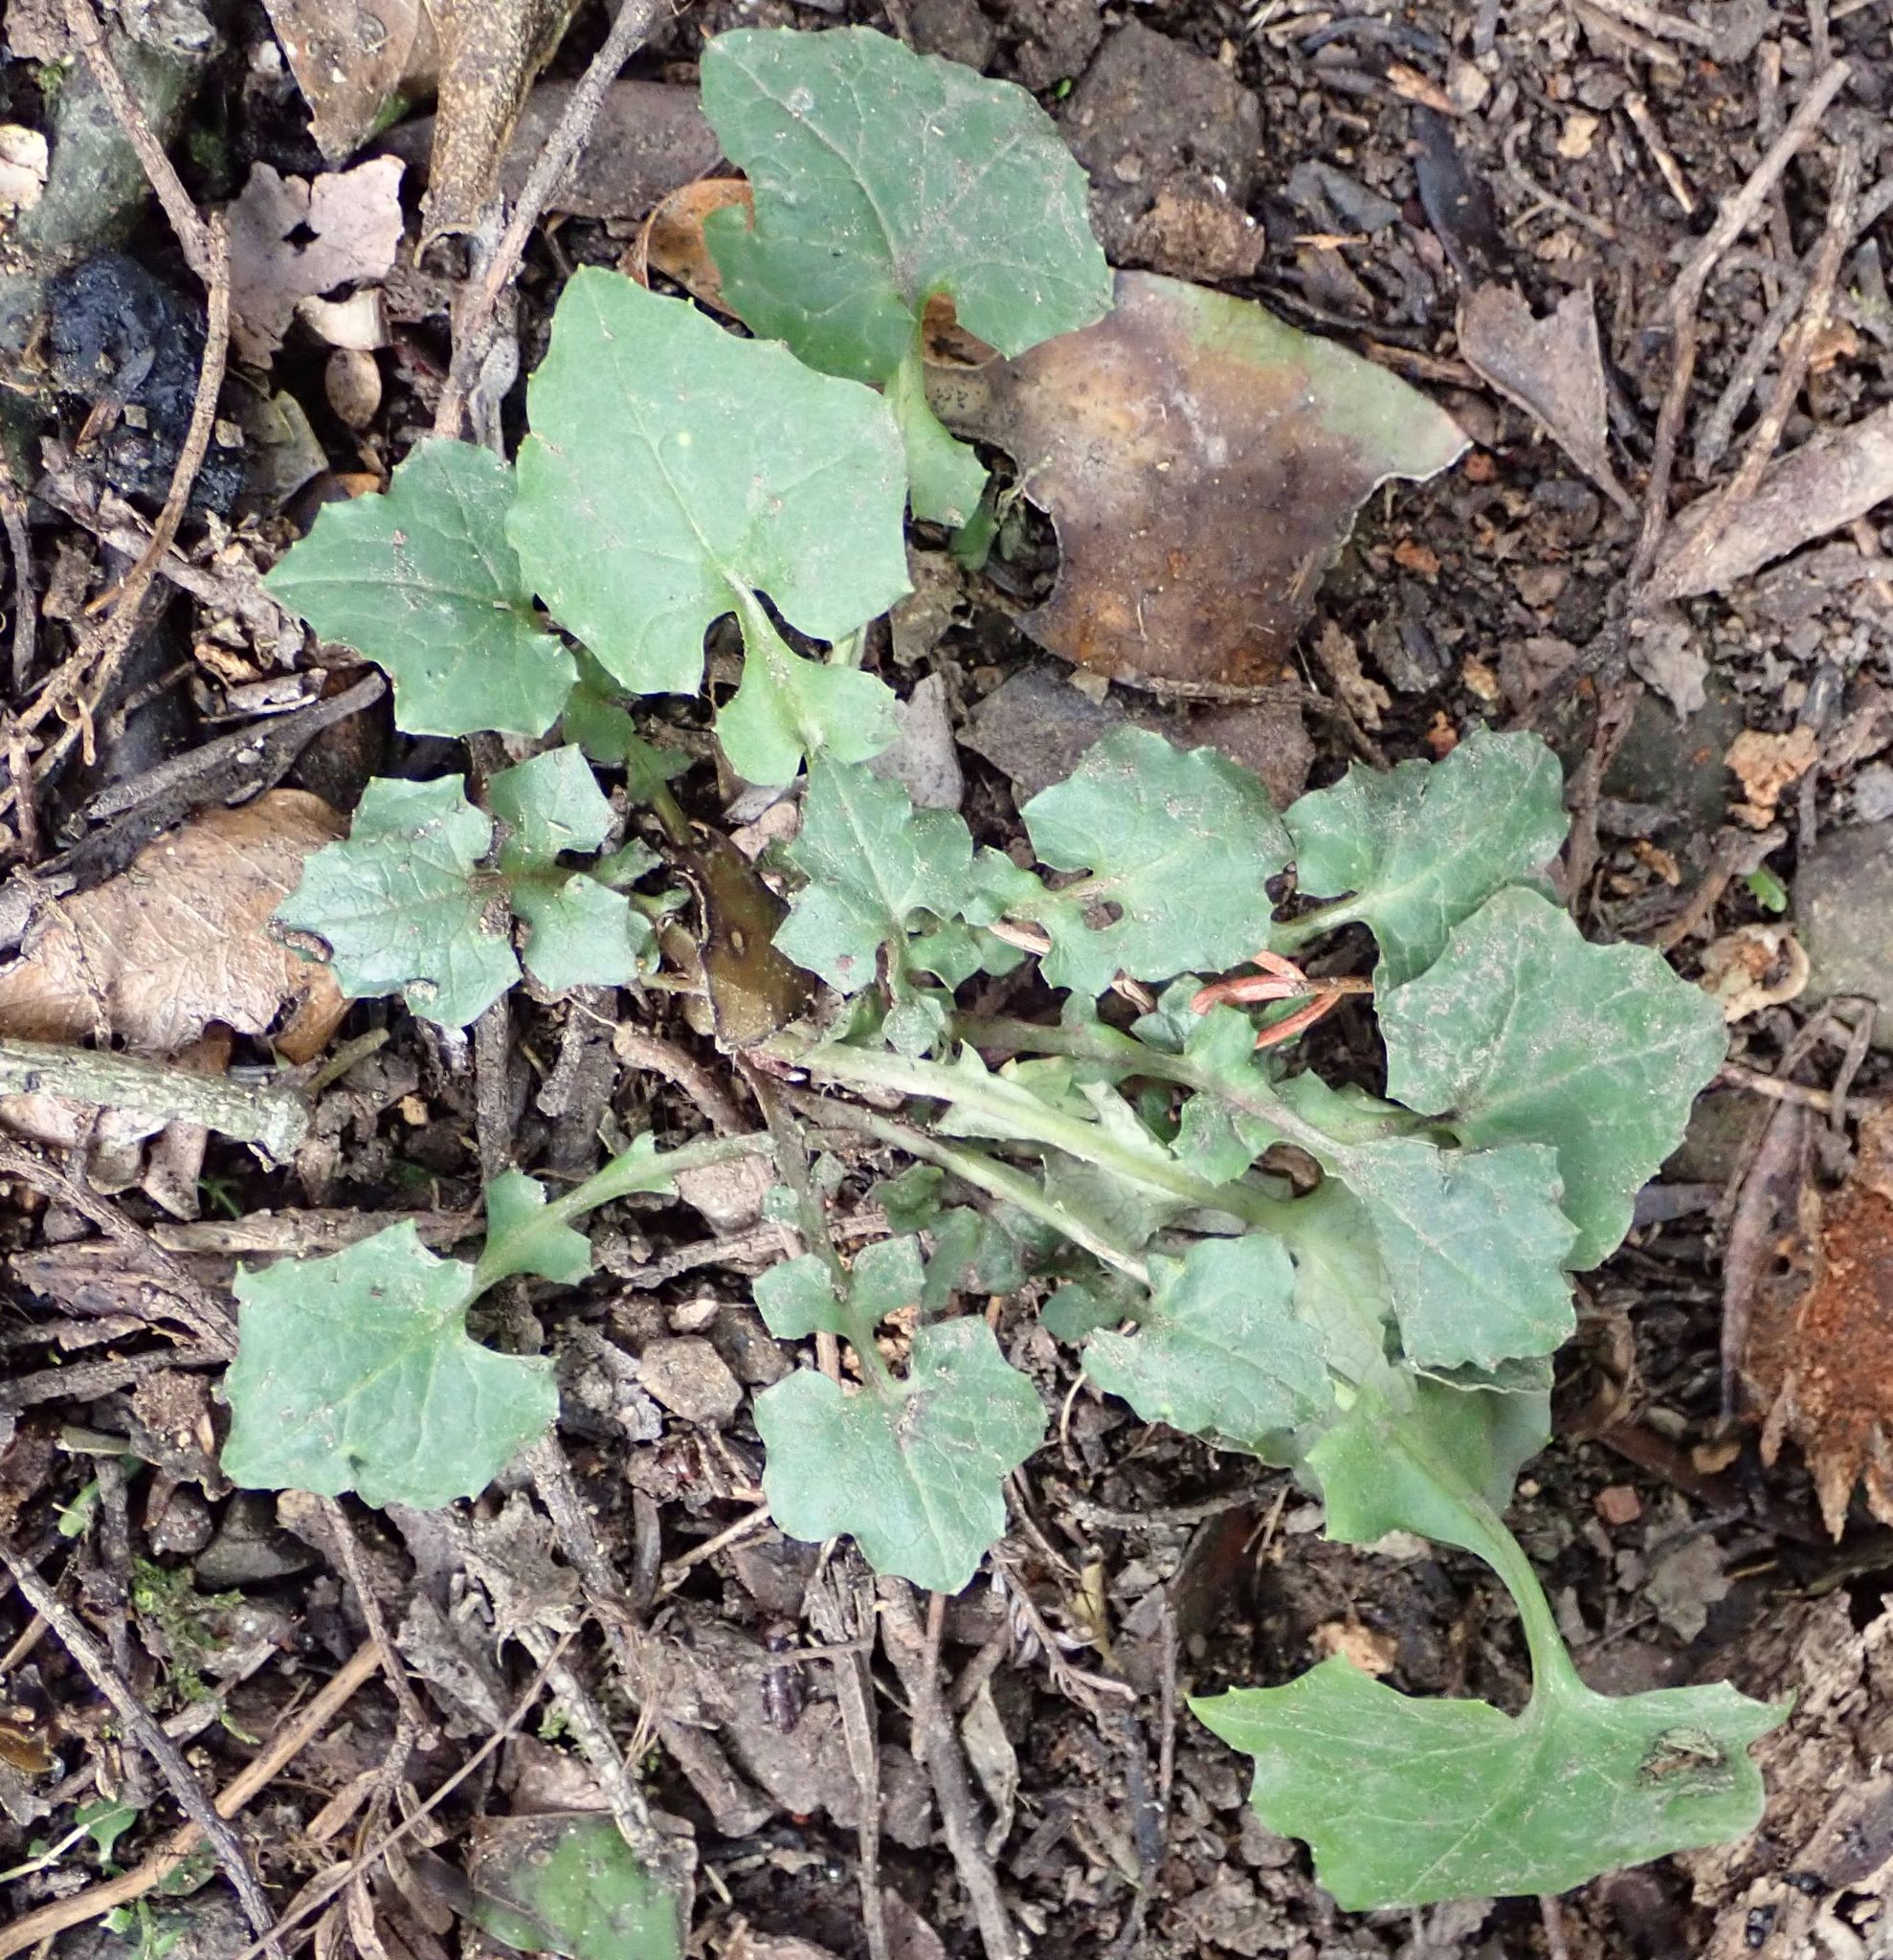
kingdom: Plantae
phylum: Tracheophyta
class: Magnoliopsida
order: Asterales
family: Asteraceae
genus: Mycelis
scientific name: Mycelis muralis
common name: Wall lettuce
